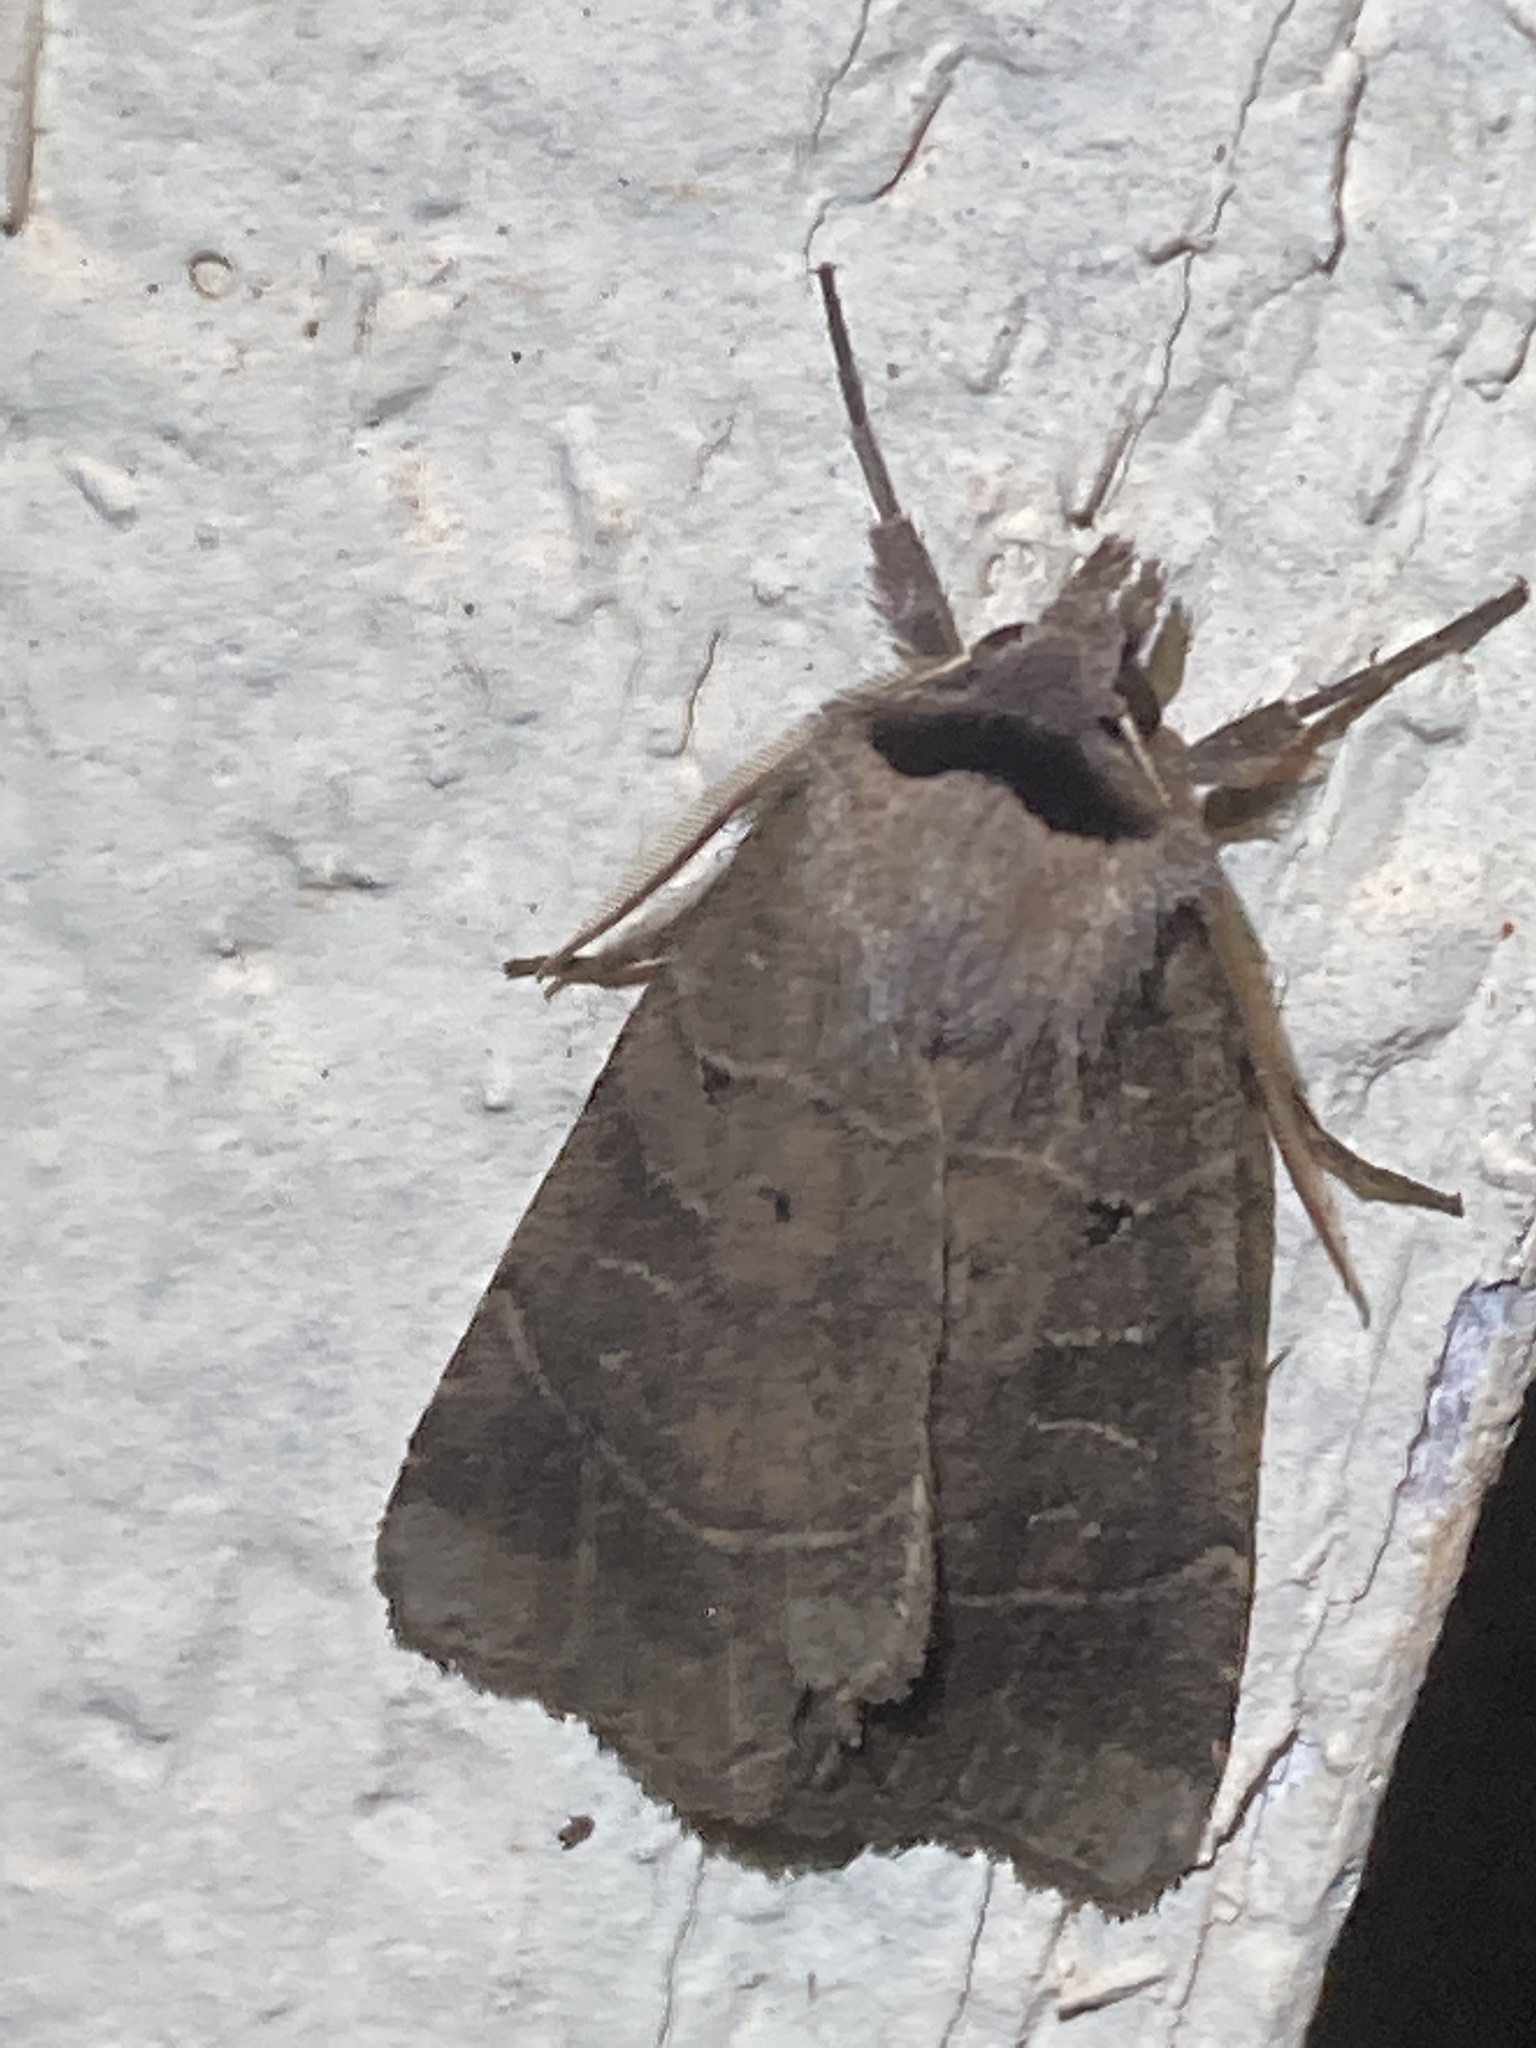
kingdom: Animalia
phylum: Arthropoda
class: Insecta
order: Lepidoptera
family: Noctuidae
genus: Agnorisma
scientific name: Agnorisma badinodis
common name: Pale-banded dart
